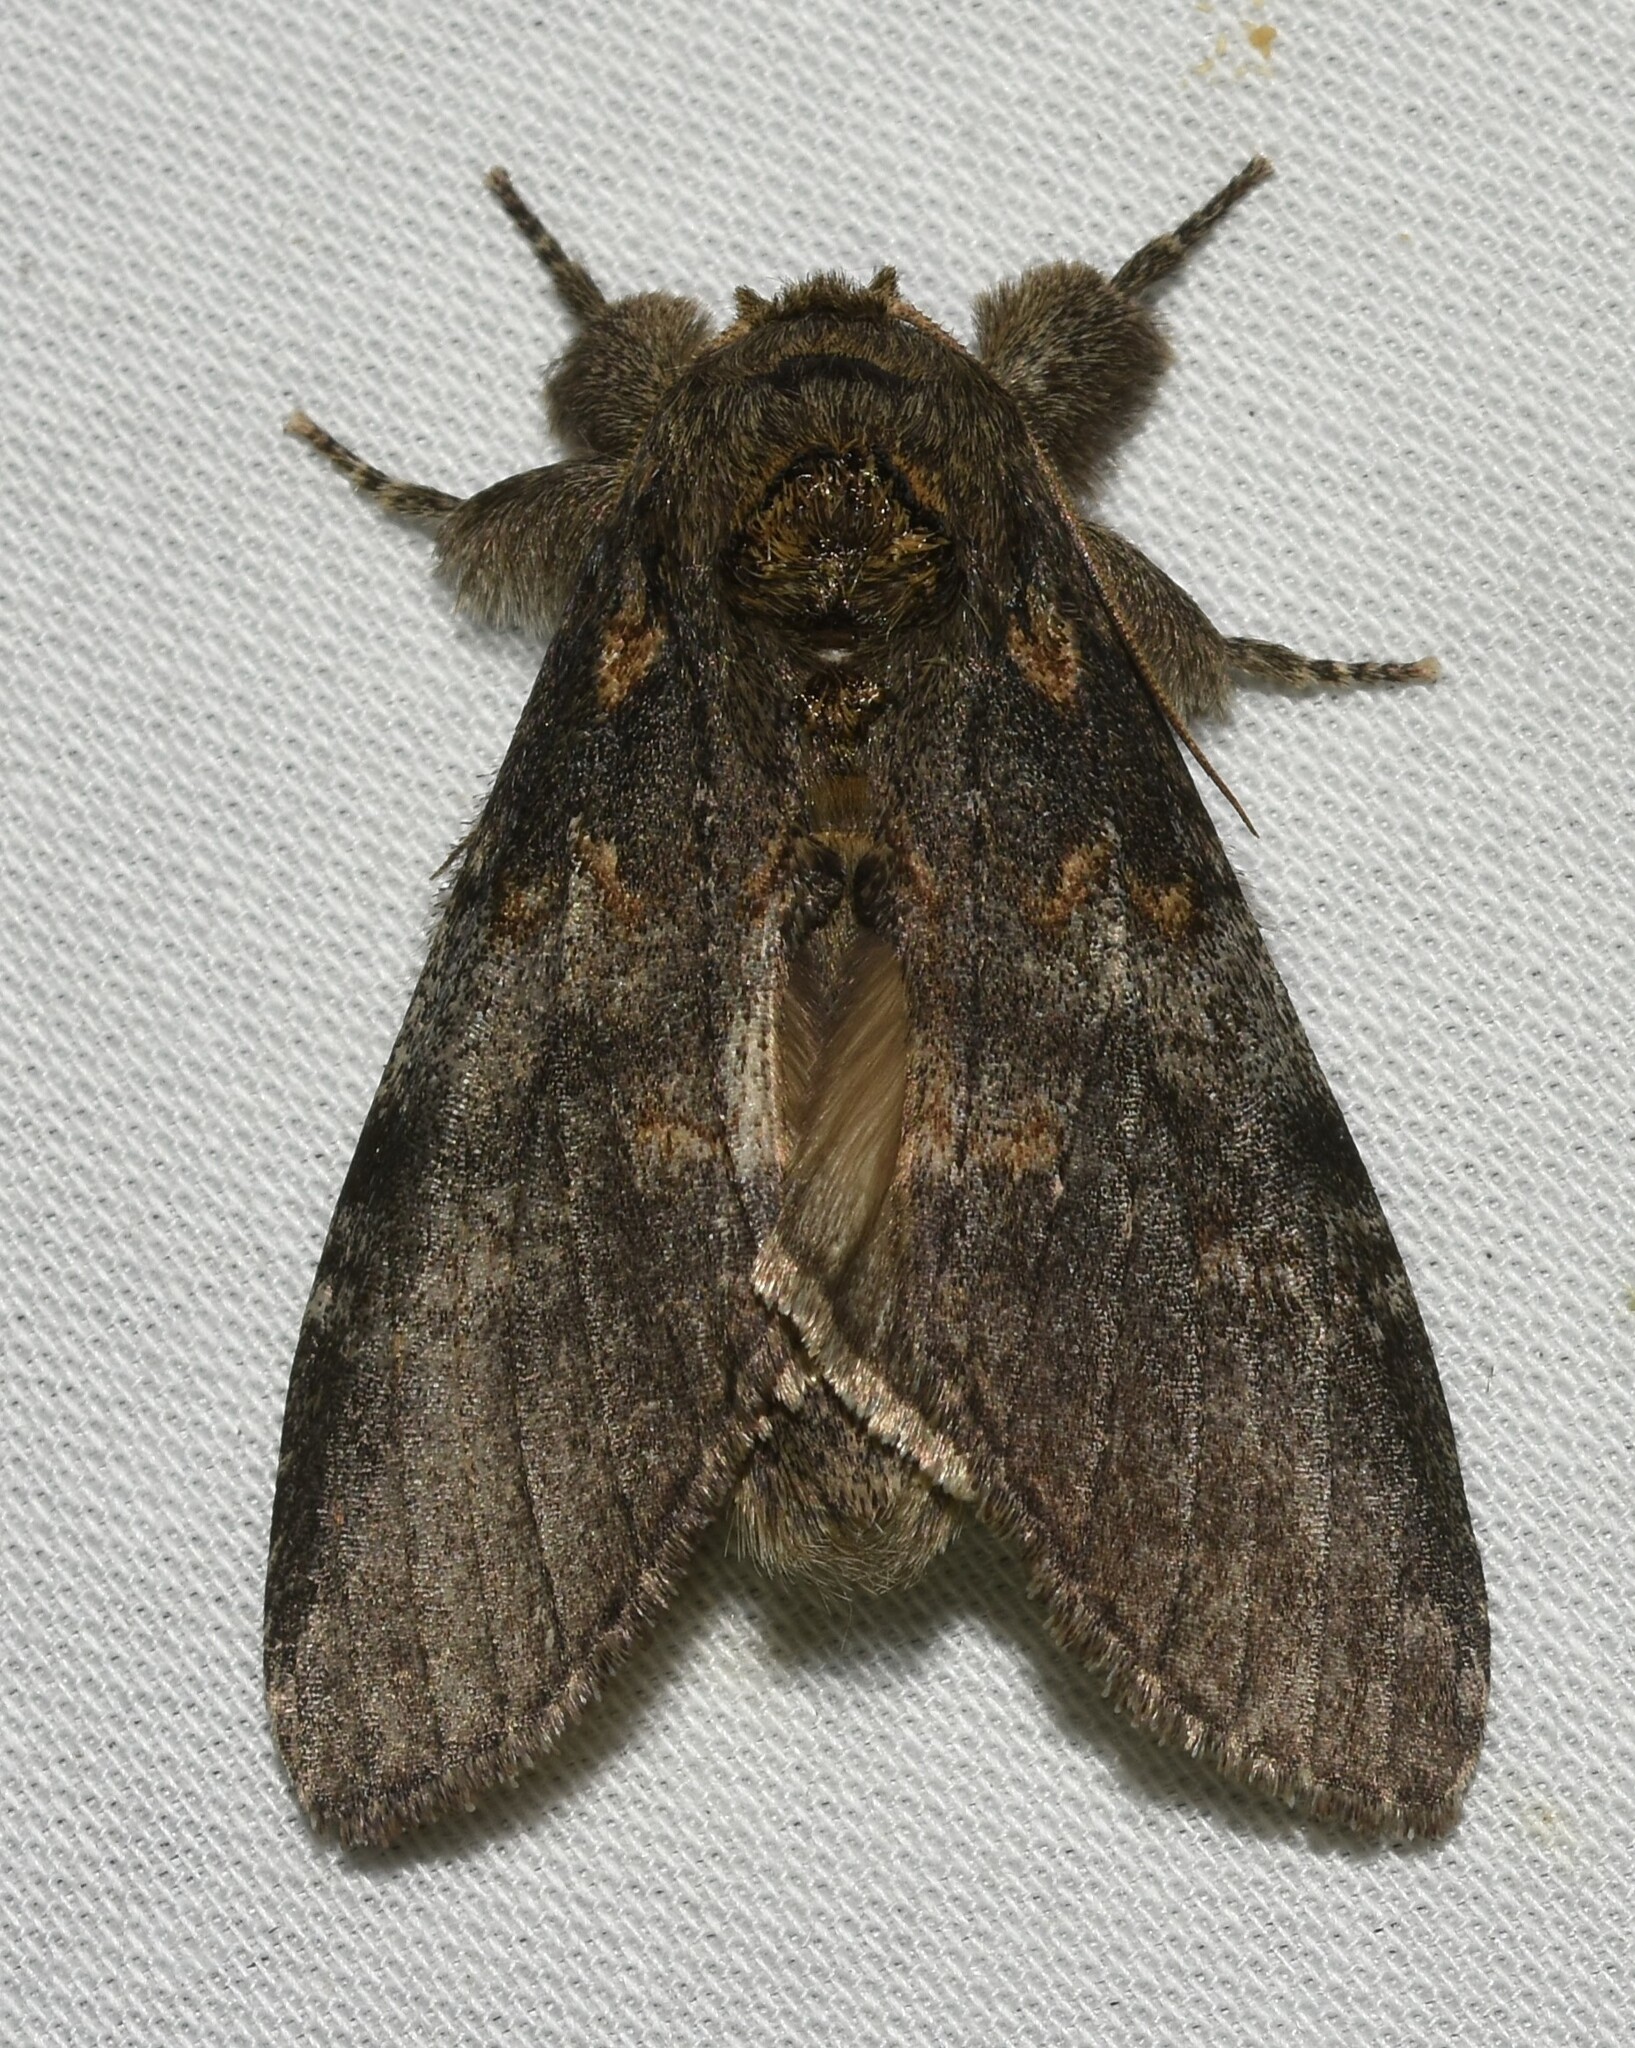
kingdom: Animalia
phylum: Arthropoda
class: Insecta
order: Lepidoptera
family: Notodontidae
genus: Peridea
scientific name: Peridea angulosa
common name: Angulose prominent
